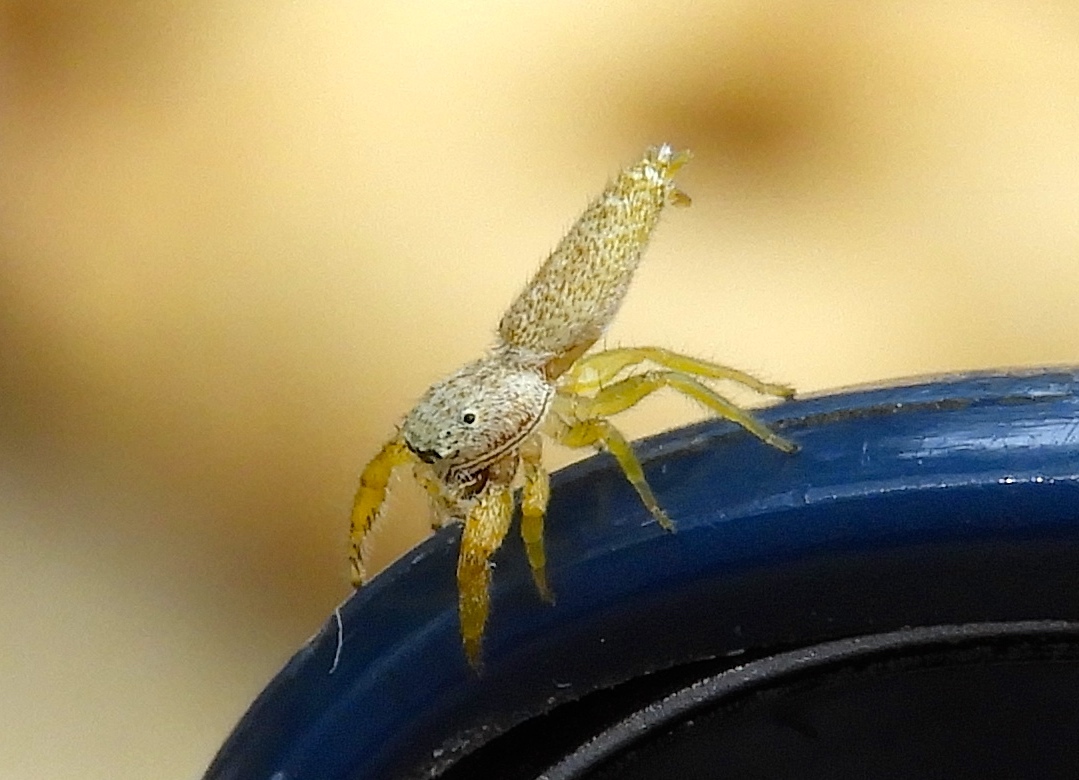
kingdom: Animalia
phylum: Arthropoda
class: Arachnida
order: Araneae
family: Salticidae
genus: Hentzia
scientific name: Hentzia
